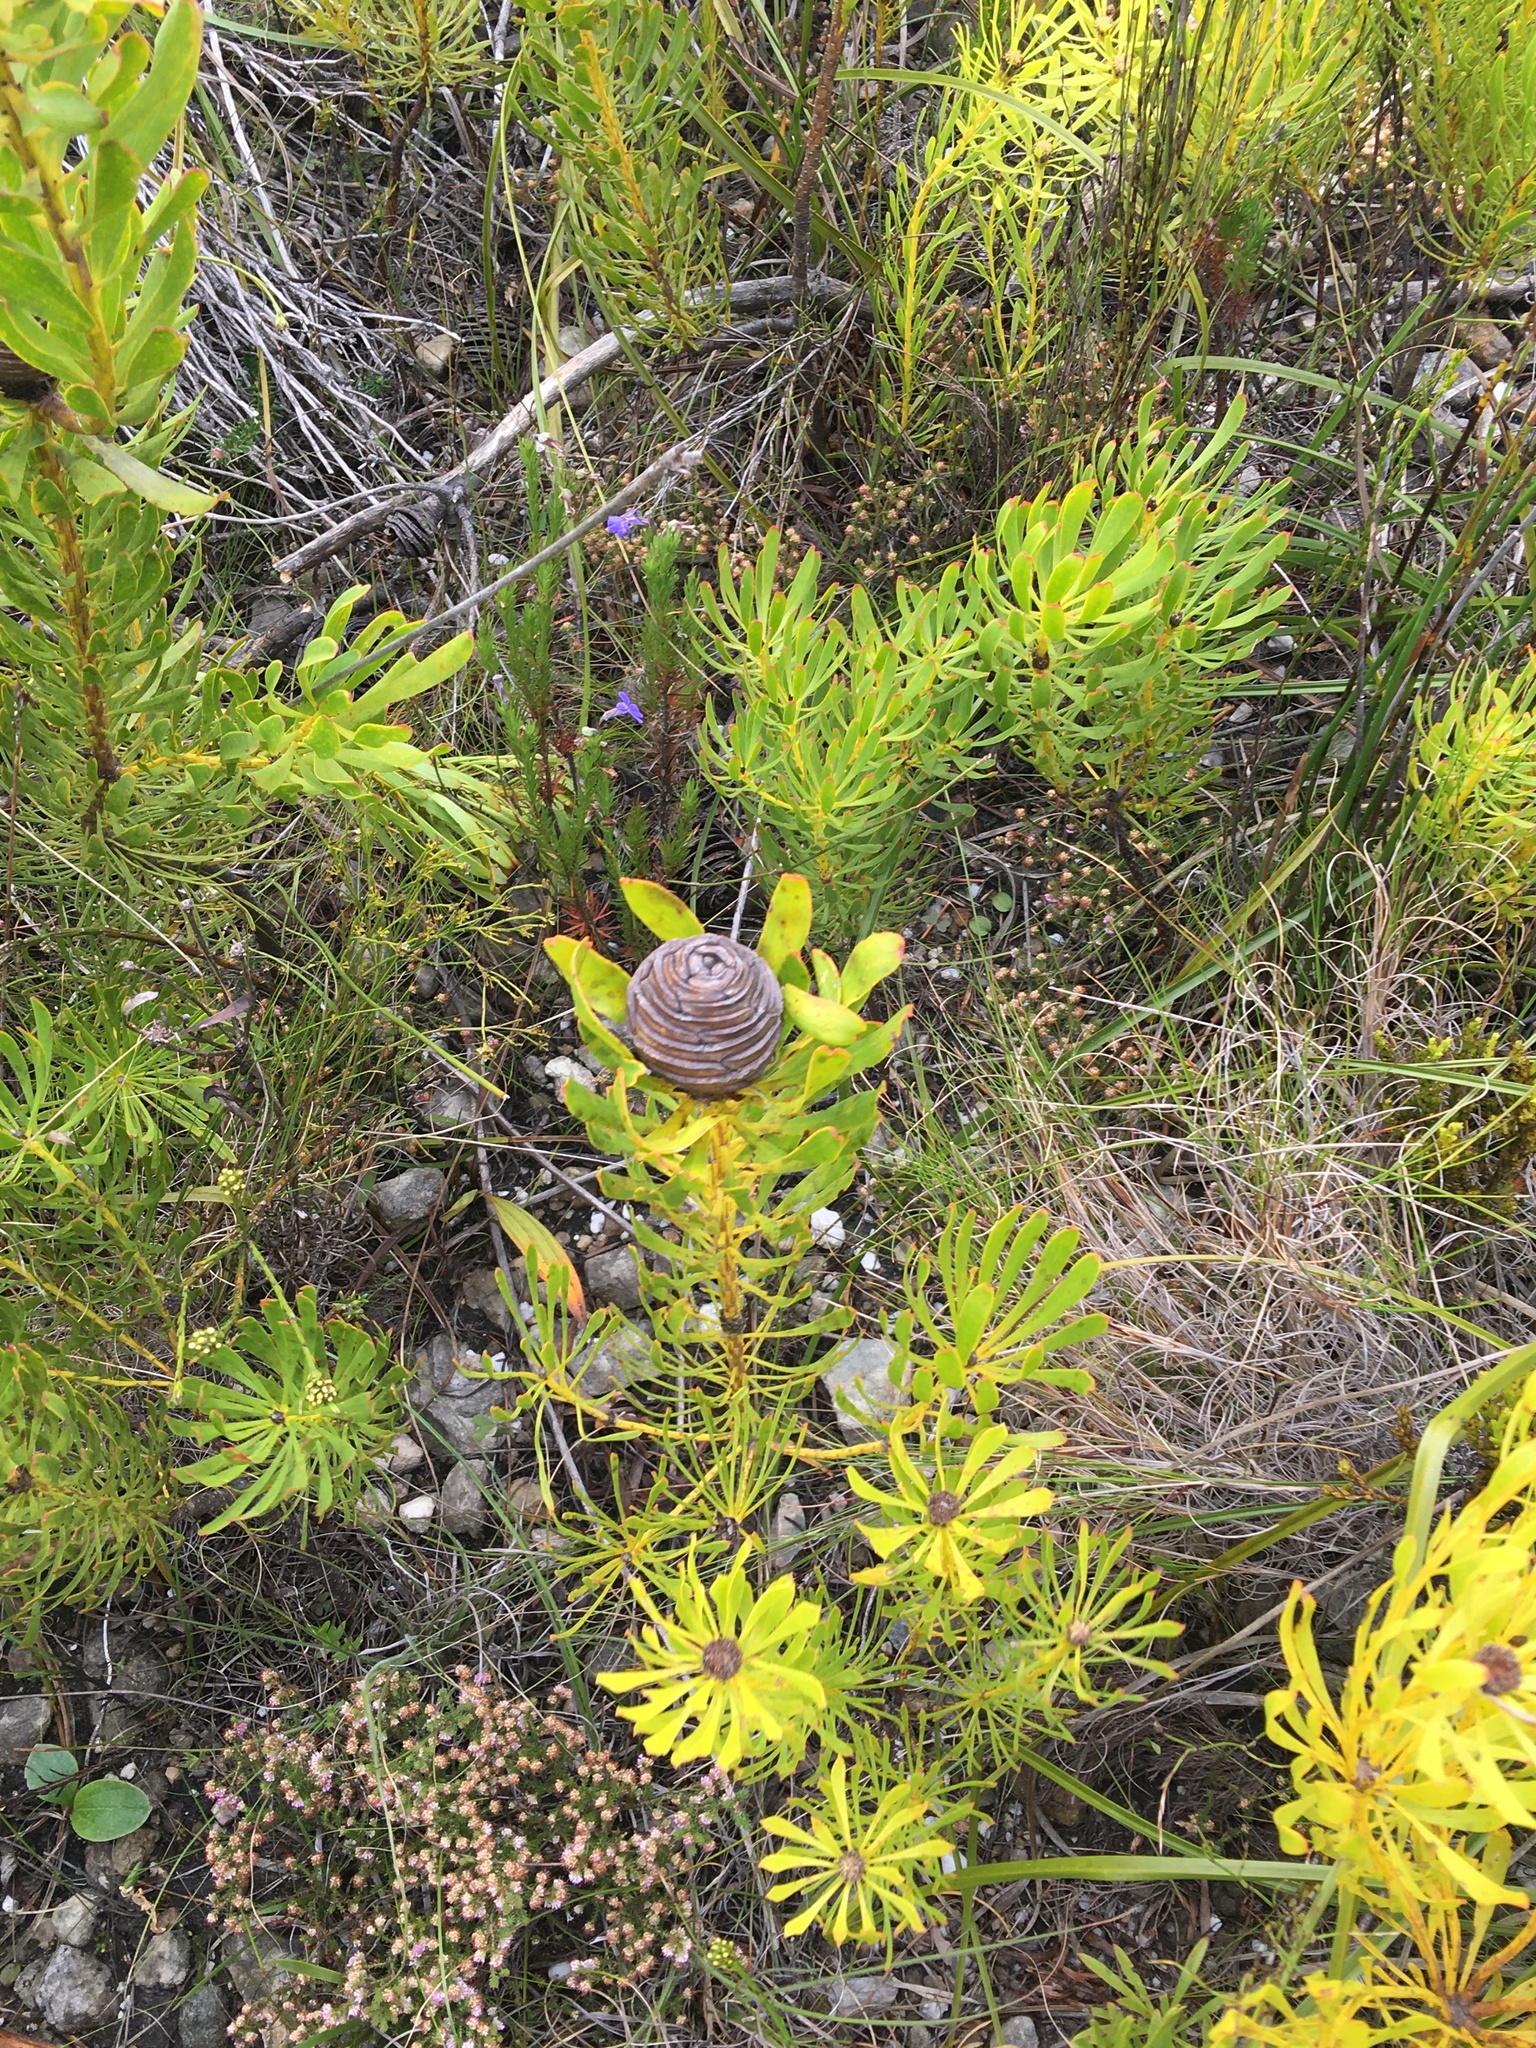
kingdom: Plantae
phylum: Tracheophyta
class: Magnoliopsida
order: Proteales
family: Proteaceae
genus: Leucadendron
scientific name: Leucadendron platyspermum
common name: Plate-seed conebush
